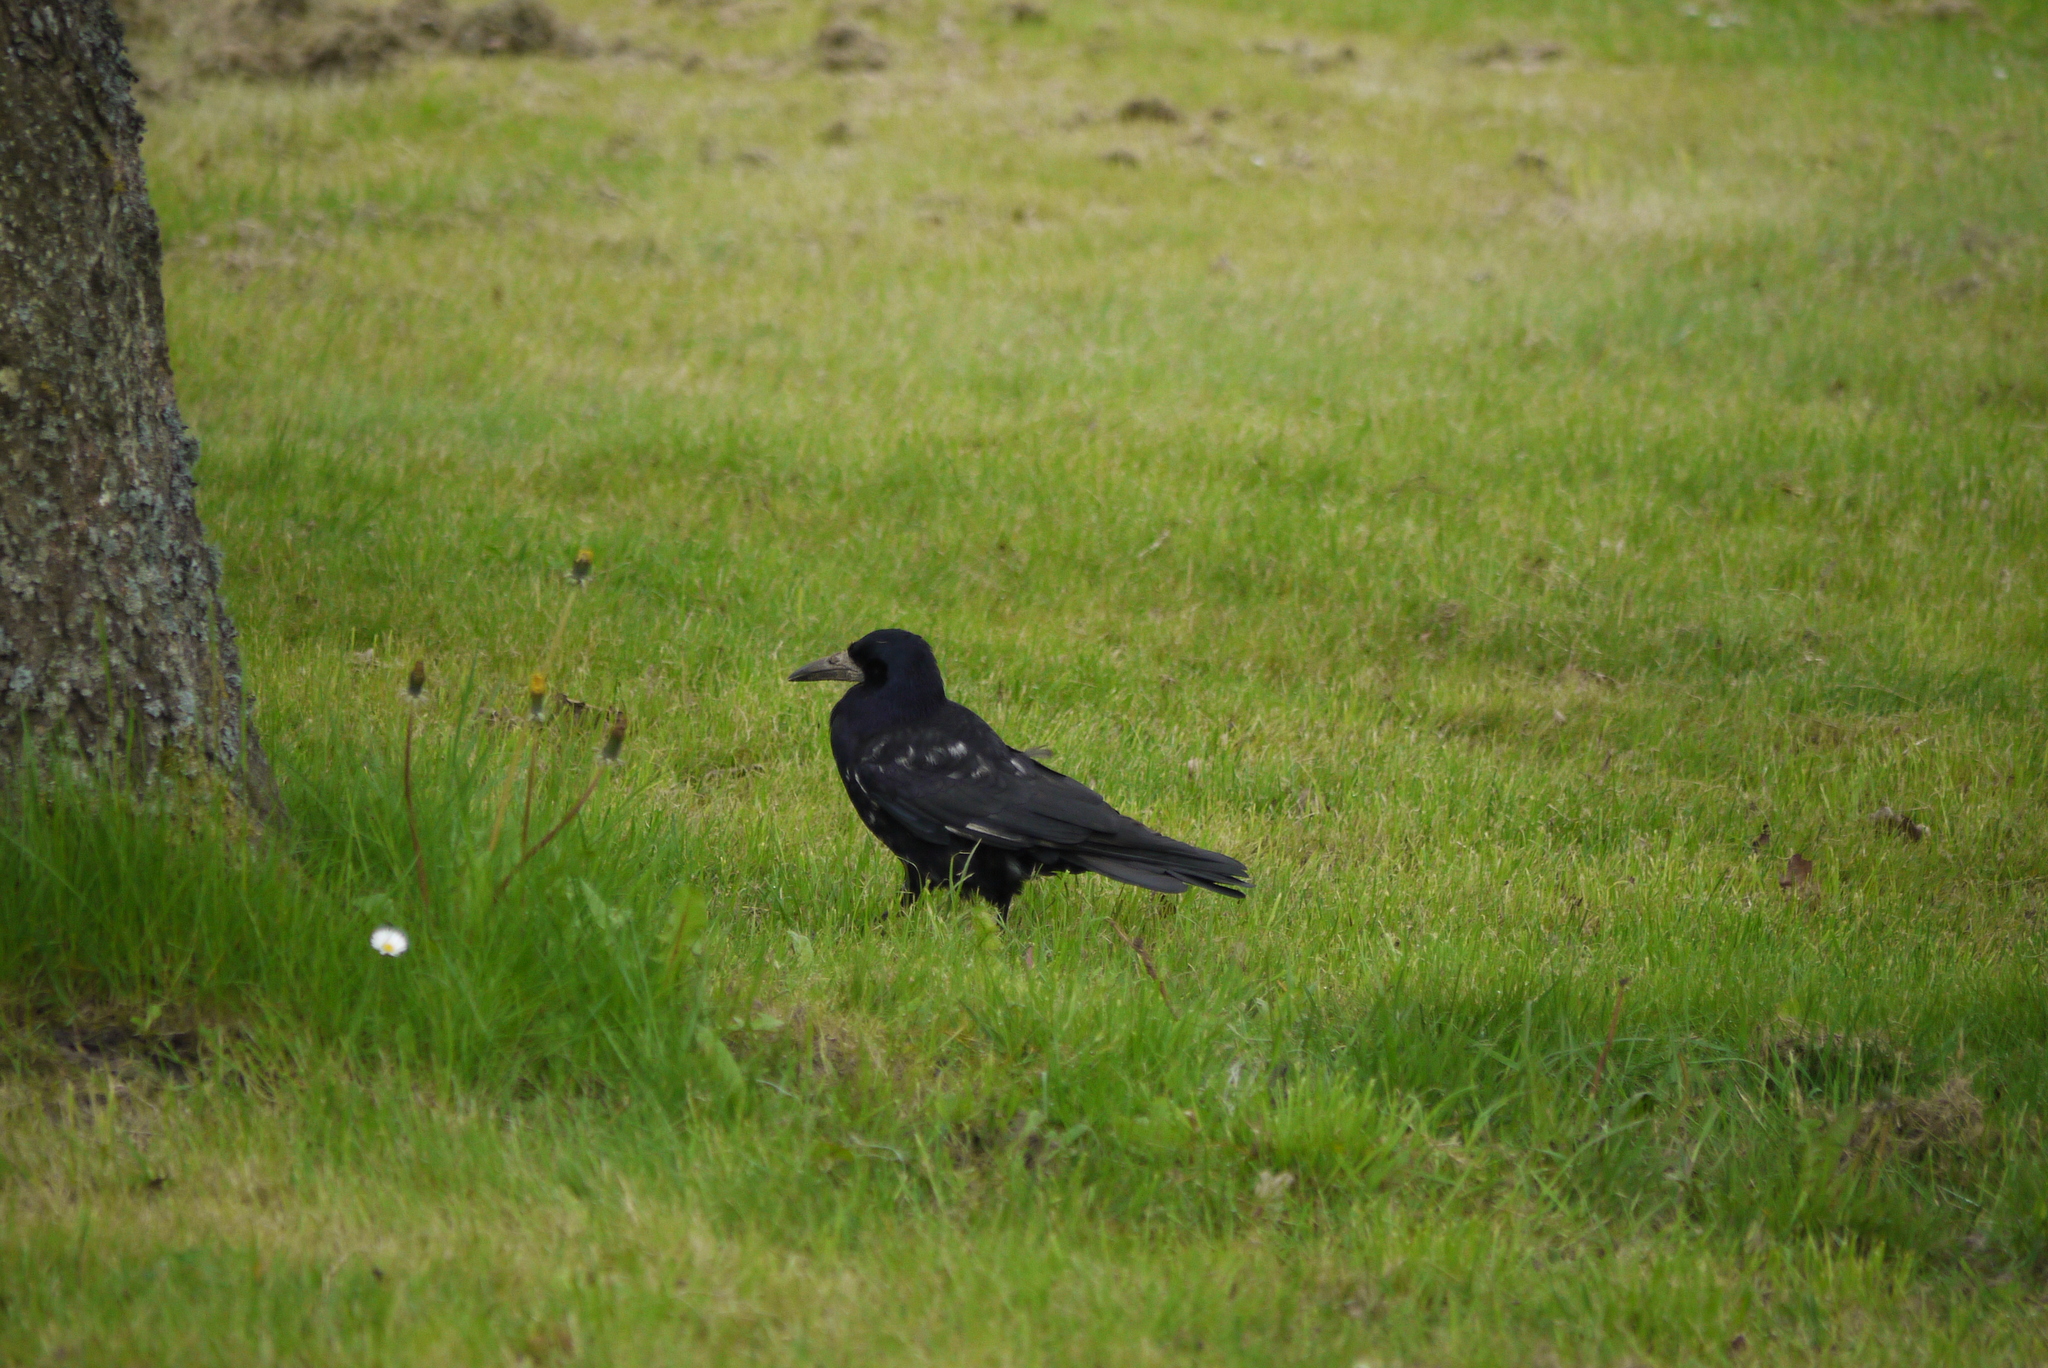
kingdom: Animalia
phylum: Chordata
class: Aves
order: Passeriformes
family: Corvidae
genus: Corvus
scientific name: Corvus frugilegus
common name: Rook
